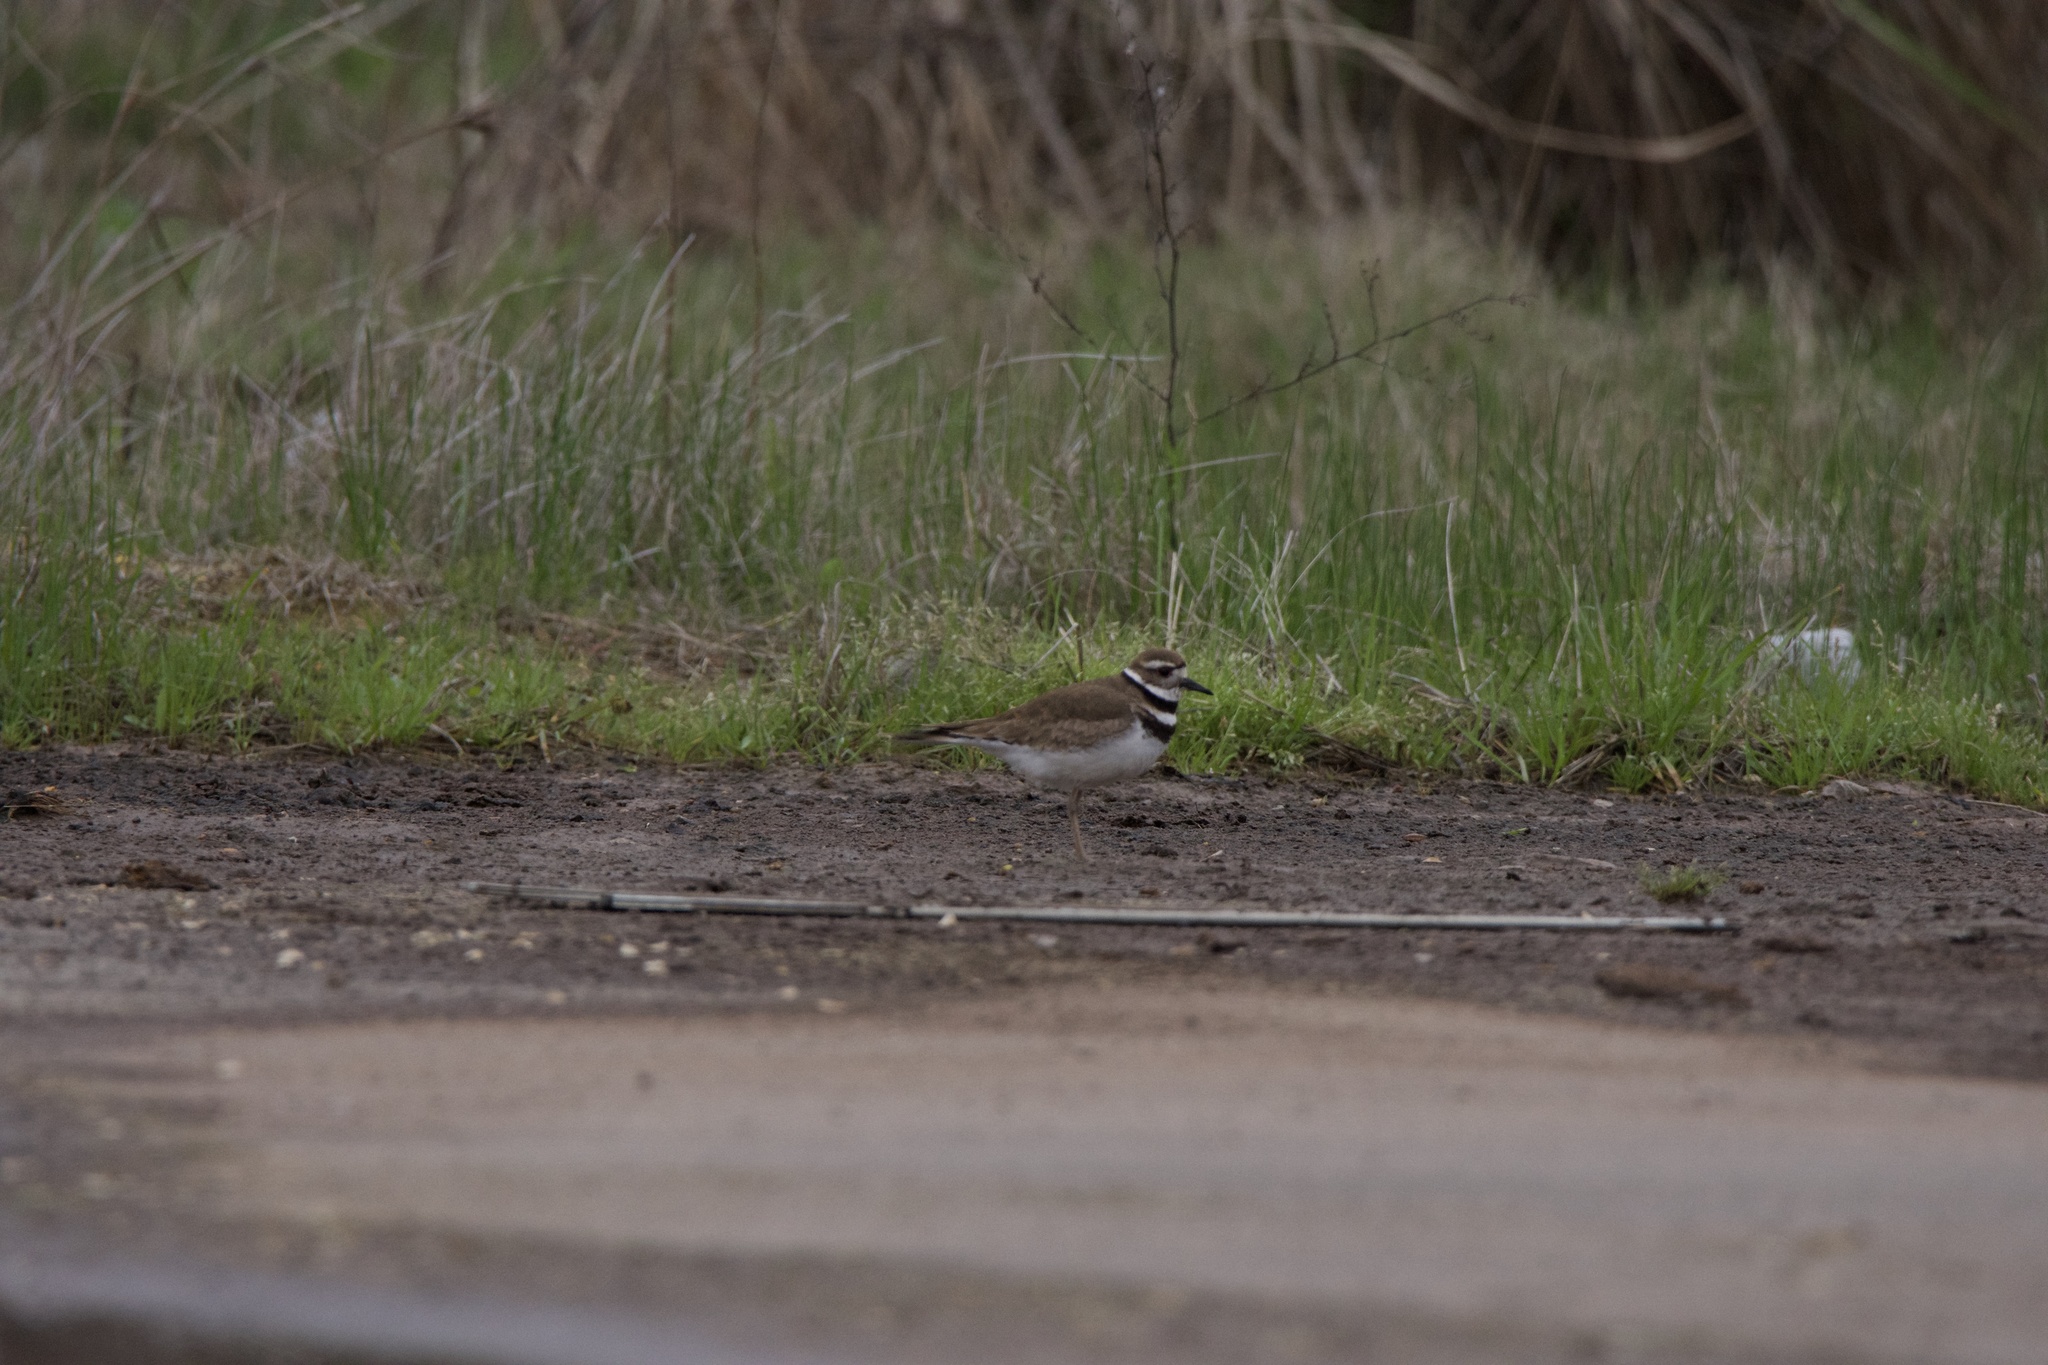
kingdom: Animalia
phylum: Chordata
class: Aves
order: Charadriiformes
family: Charadriidae
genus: Charadrius
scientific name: Charadrius vociferus
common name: Killdeer
